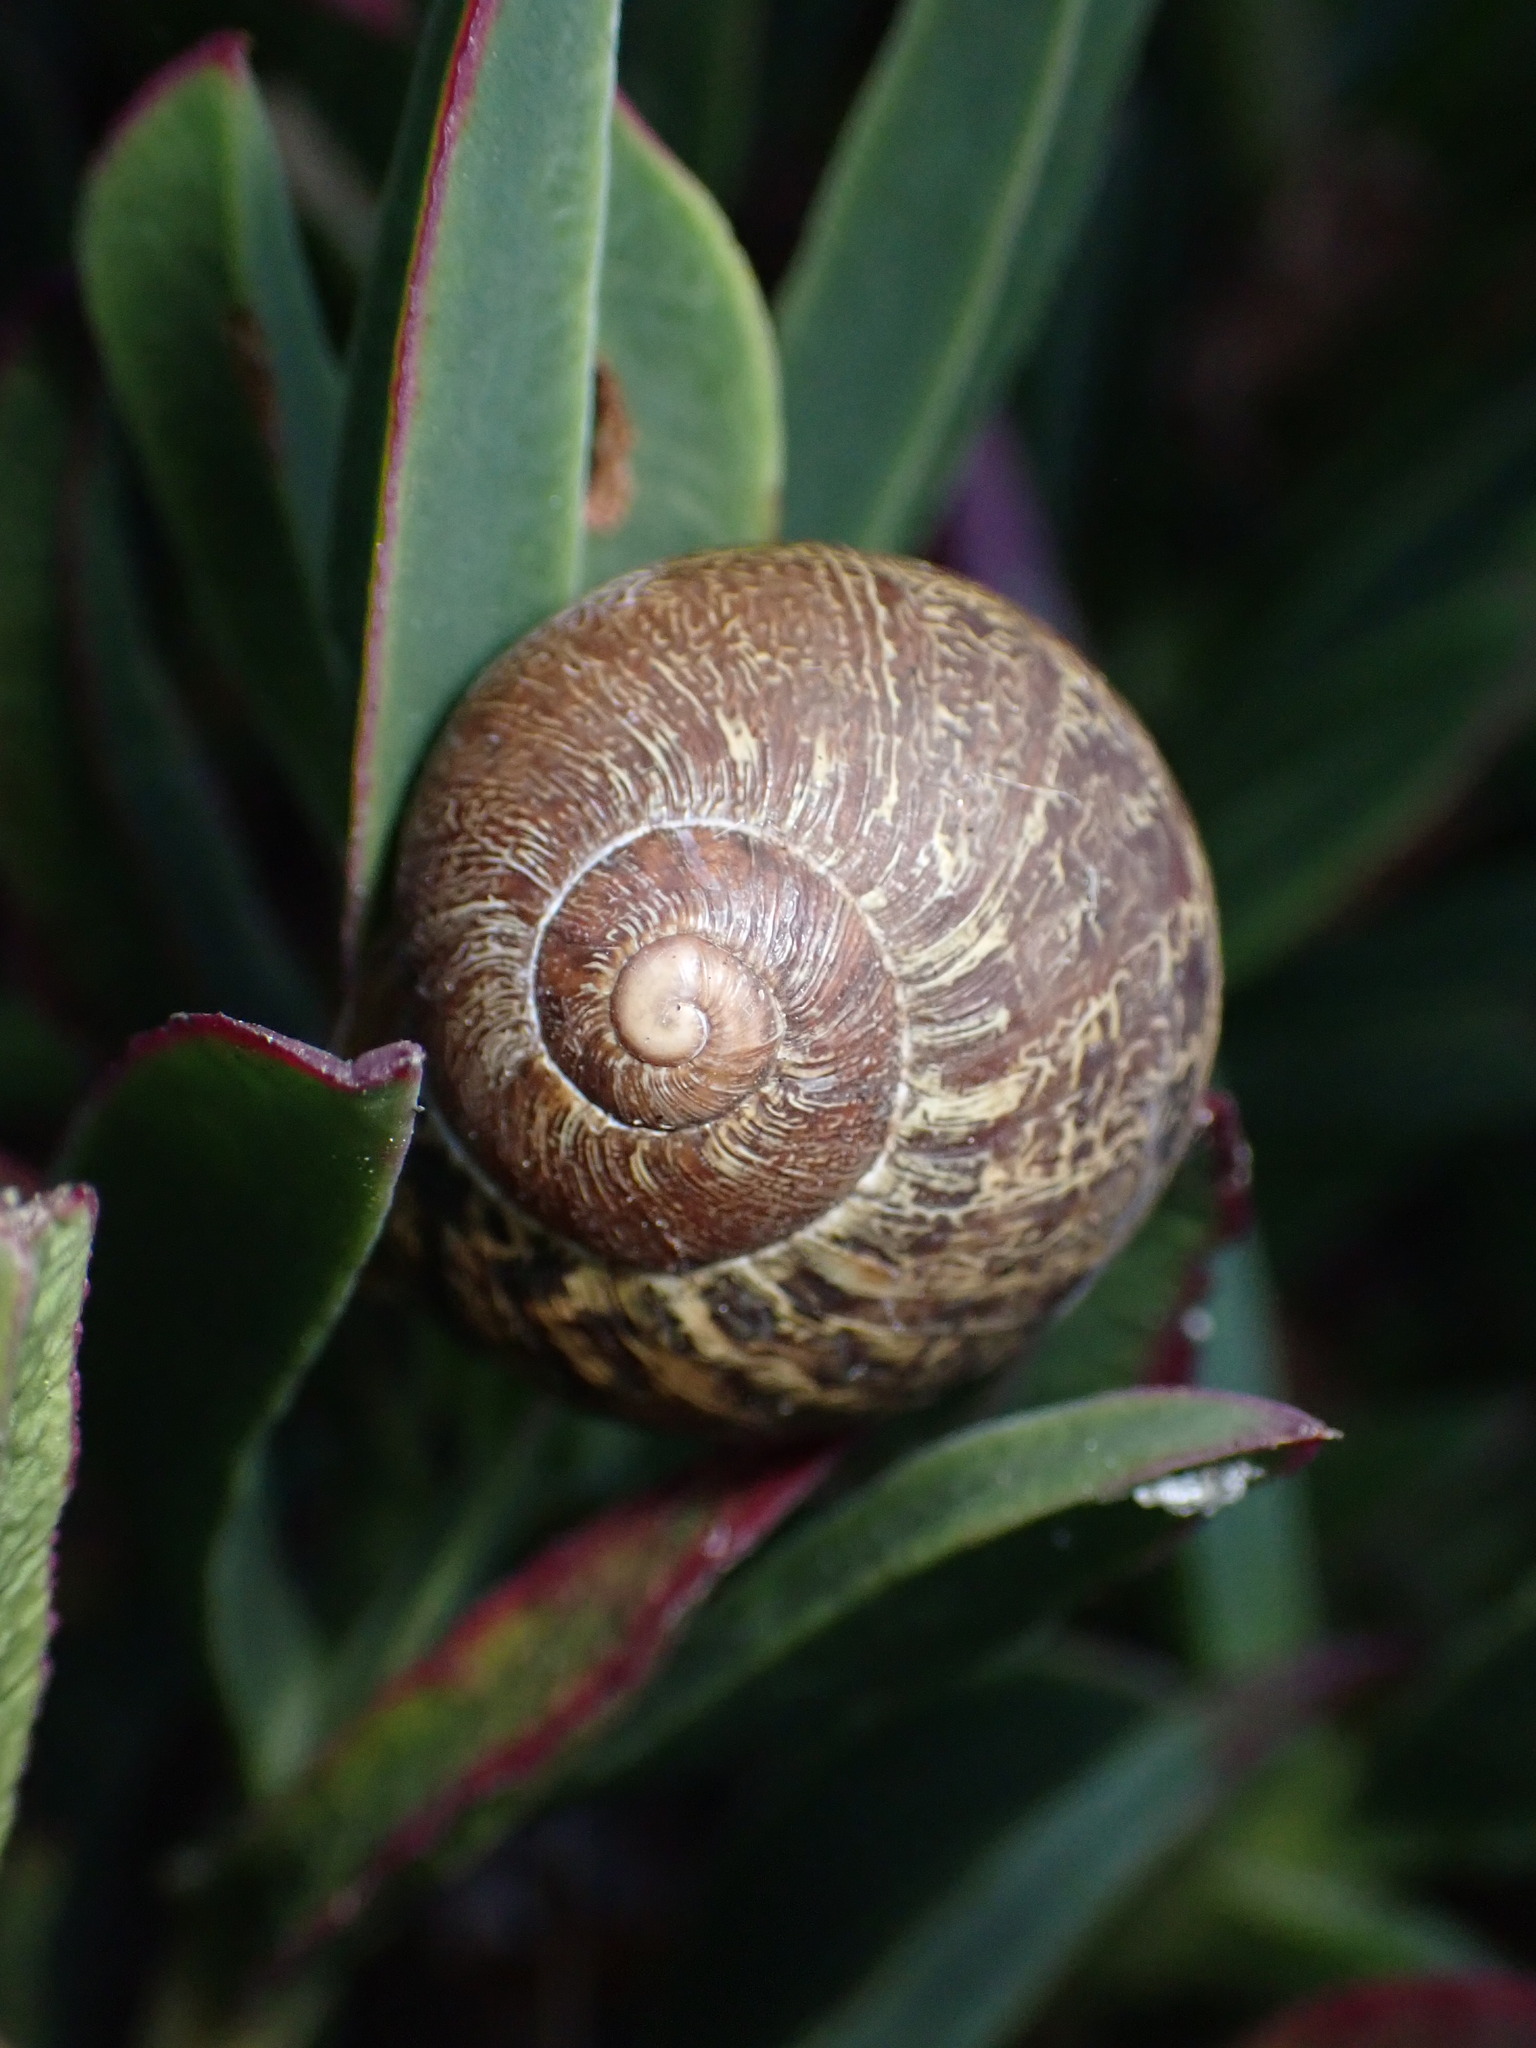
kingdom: Animalia
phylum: Mollusca
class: Gastropoda
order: Stylommatophora
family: Helicidae
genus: Cornu
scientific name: Cornu aspersum
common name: Brown garden snail
